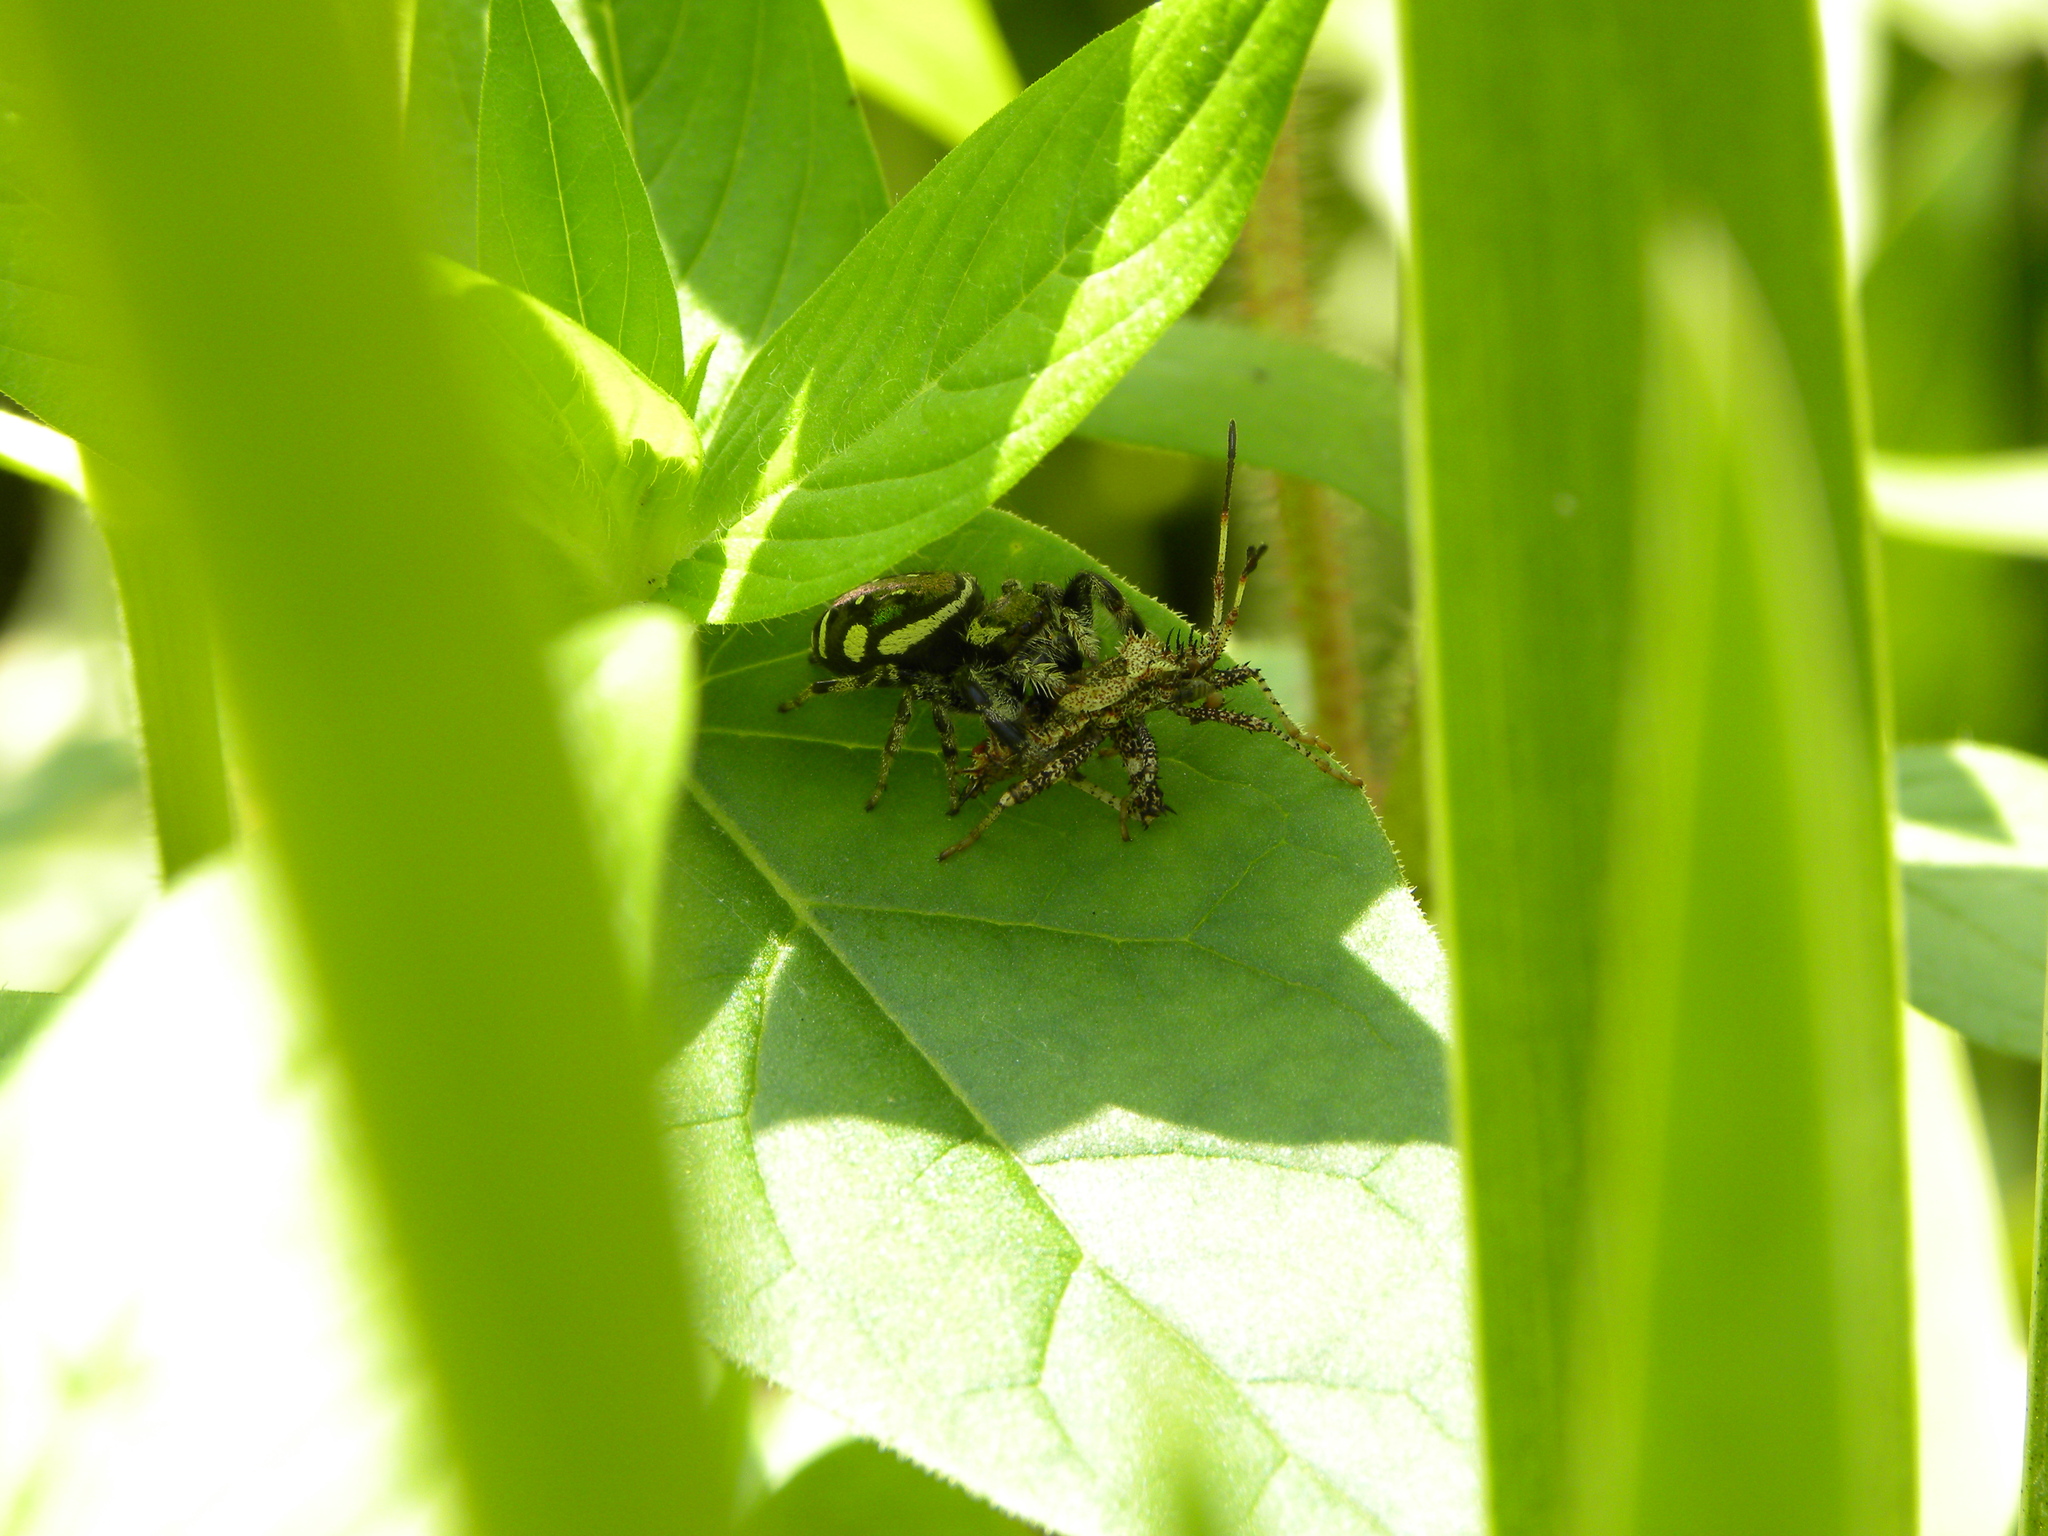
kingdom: Animalia
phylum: Arthropoda
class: Arachnida
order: Araneae
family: Salticidae
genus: Paraphidippus
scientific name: Paraphidippus aurantius
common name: Jumping spiders
